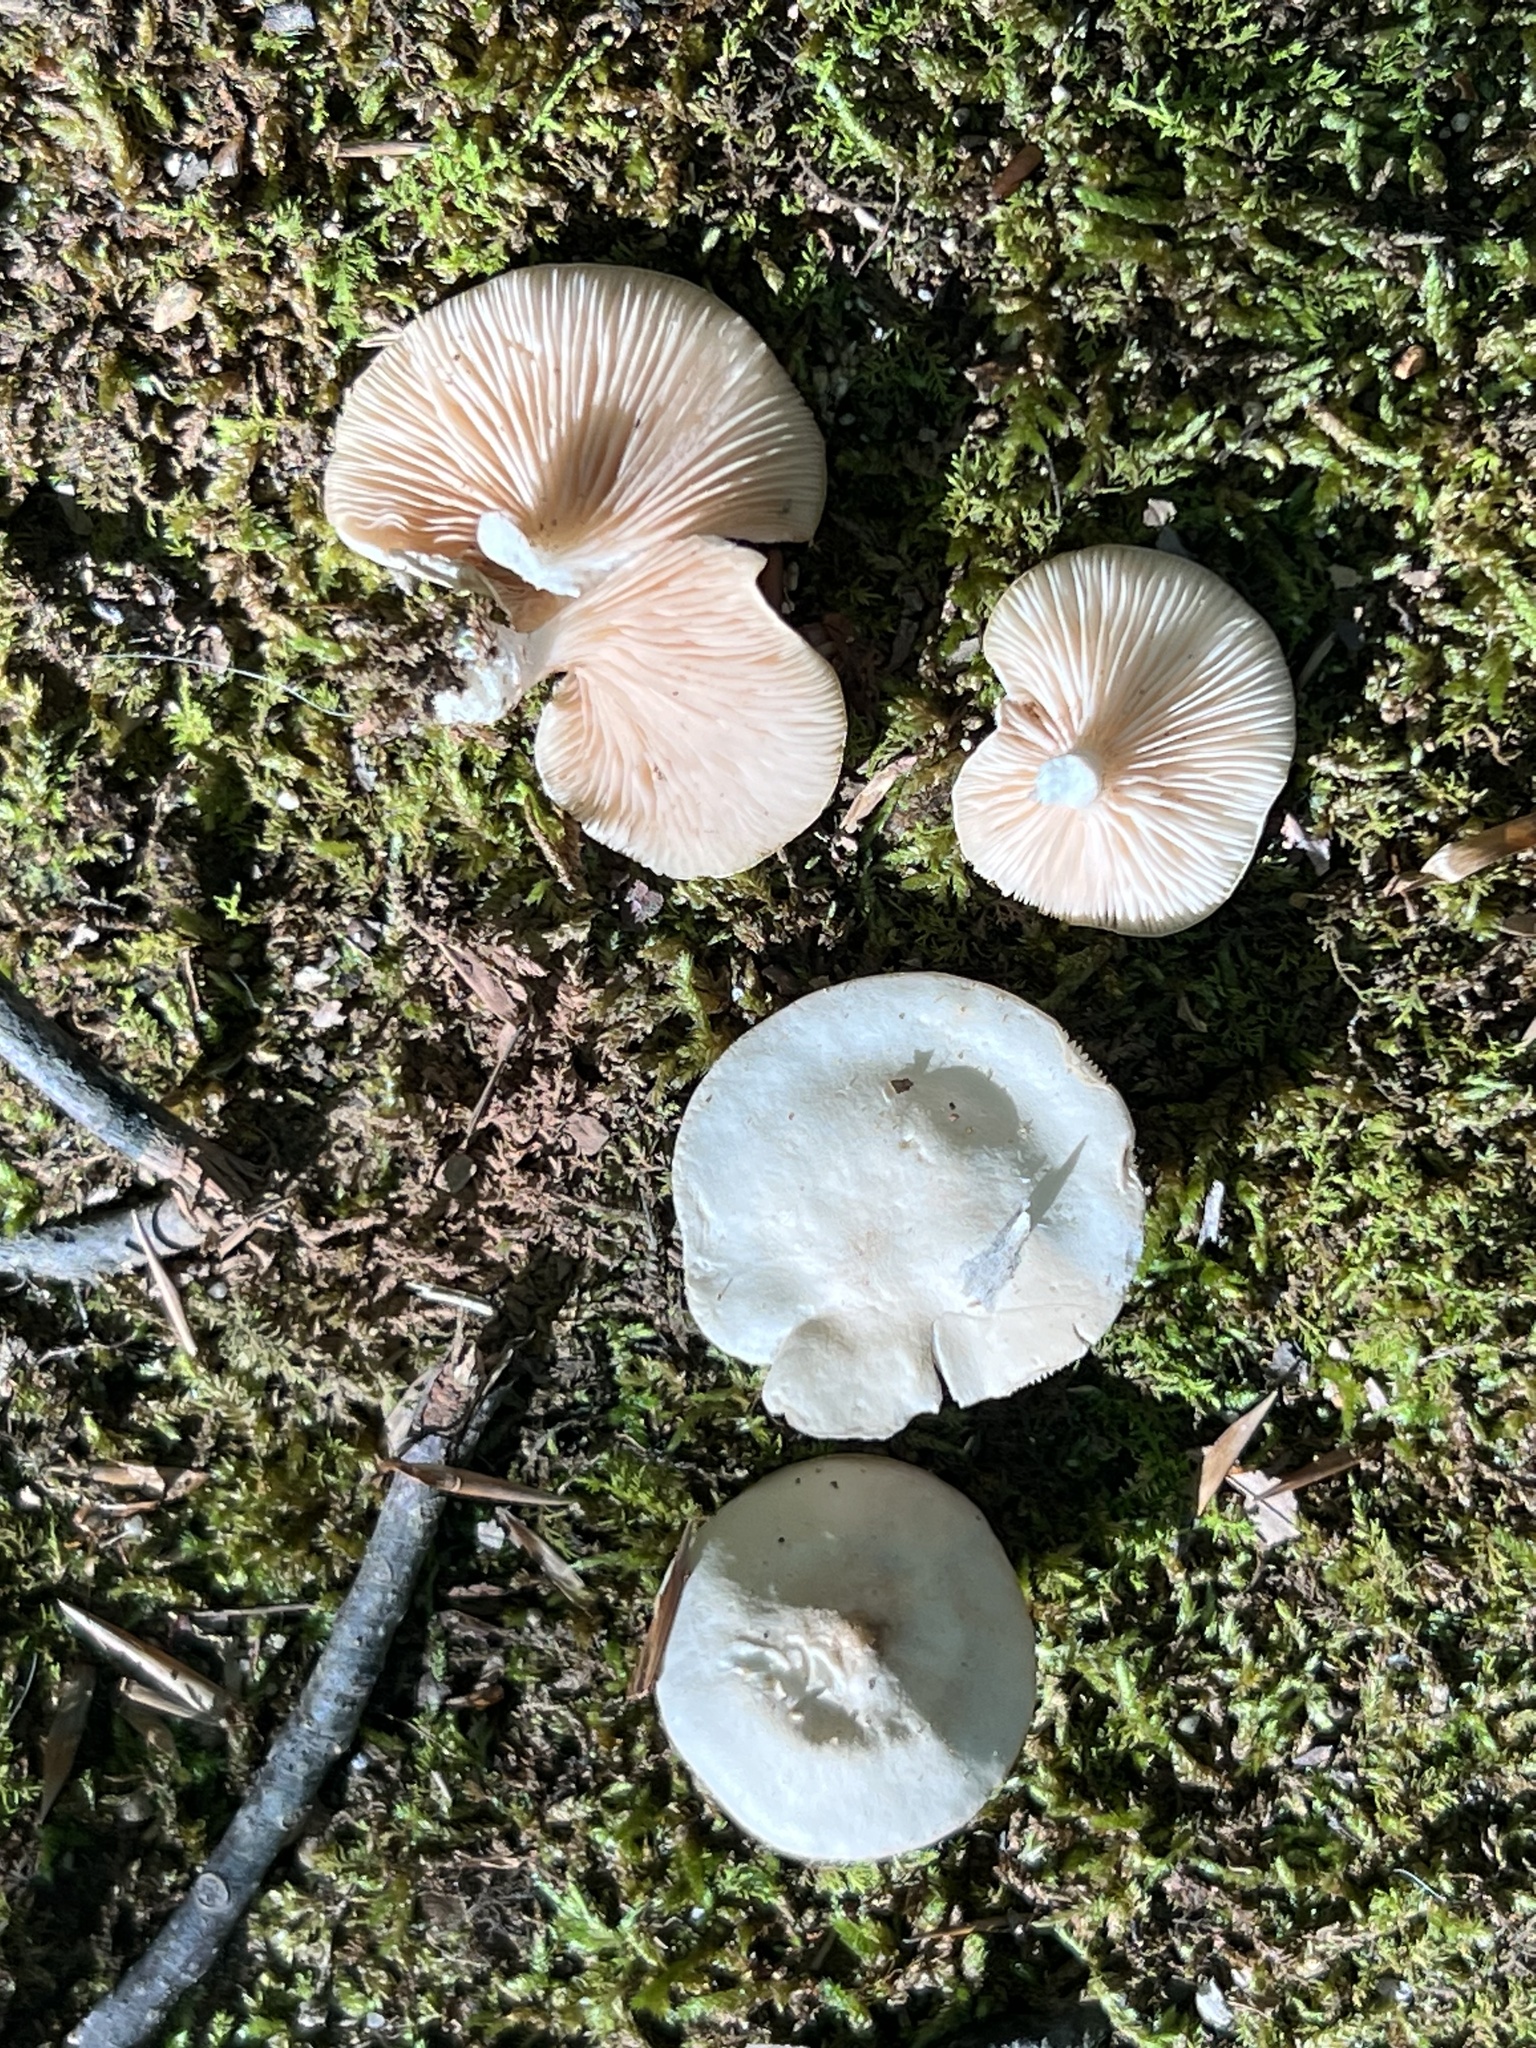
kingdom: Fungi
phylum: Basidiomycota
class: Agaricomycetes
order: Agaricales
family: Entolomataceae
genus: Clitopilus
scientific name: Clitopilus prunulus
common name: The miller
